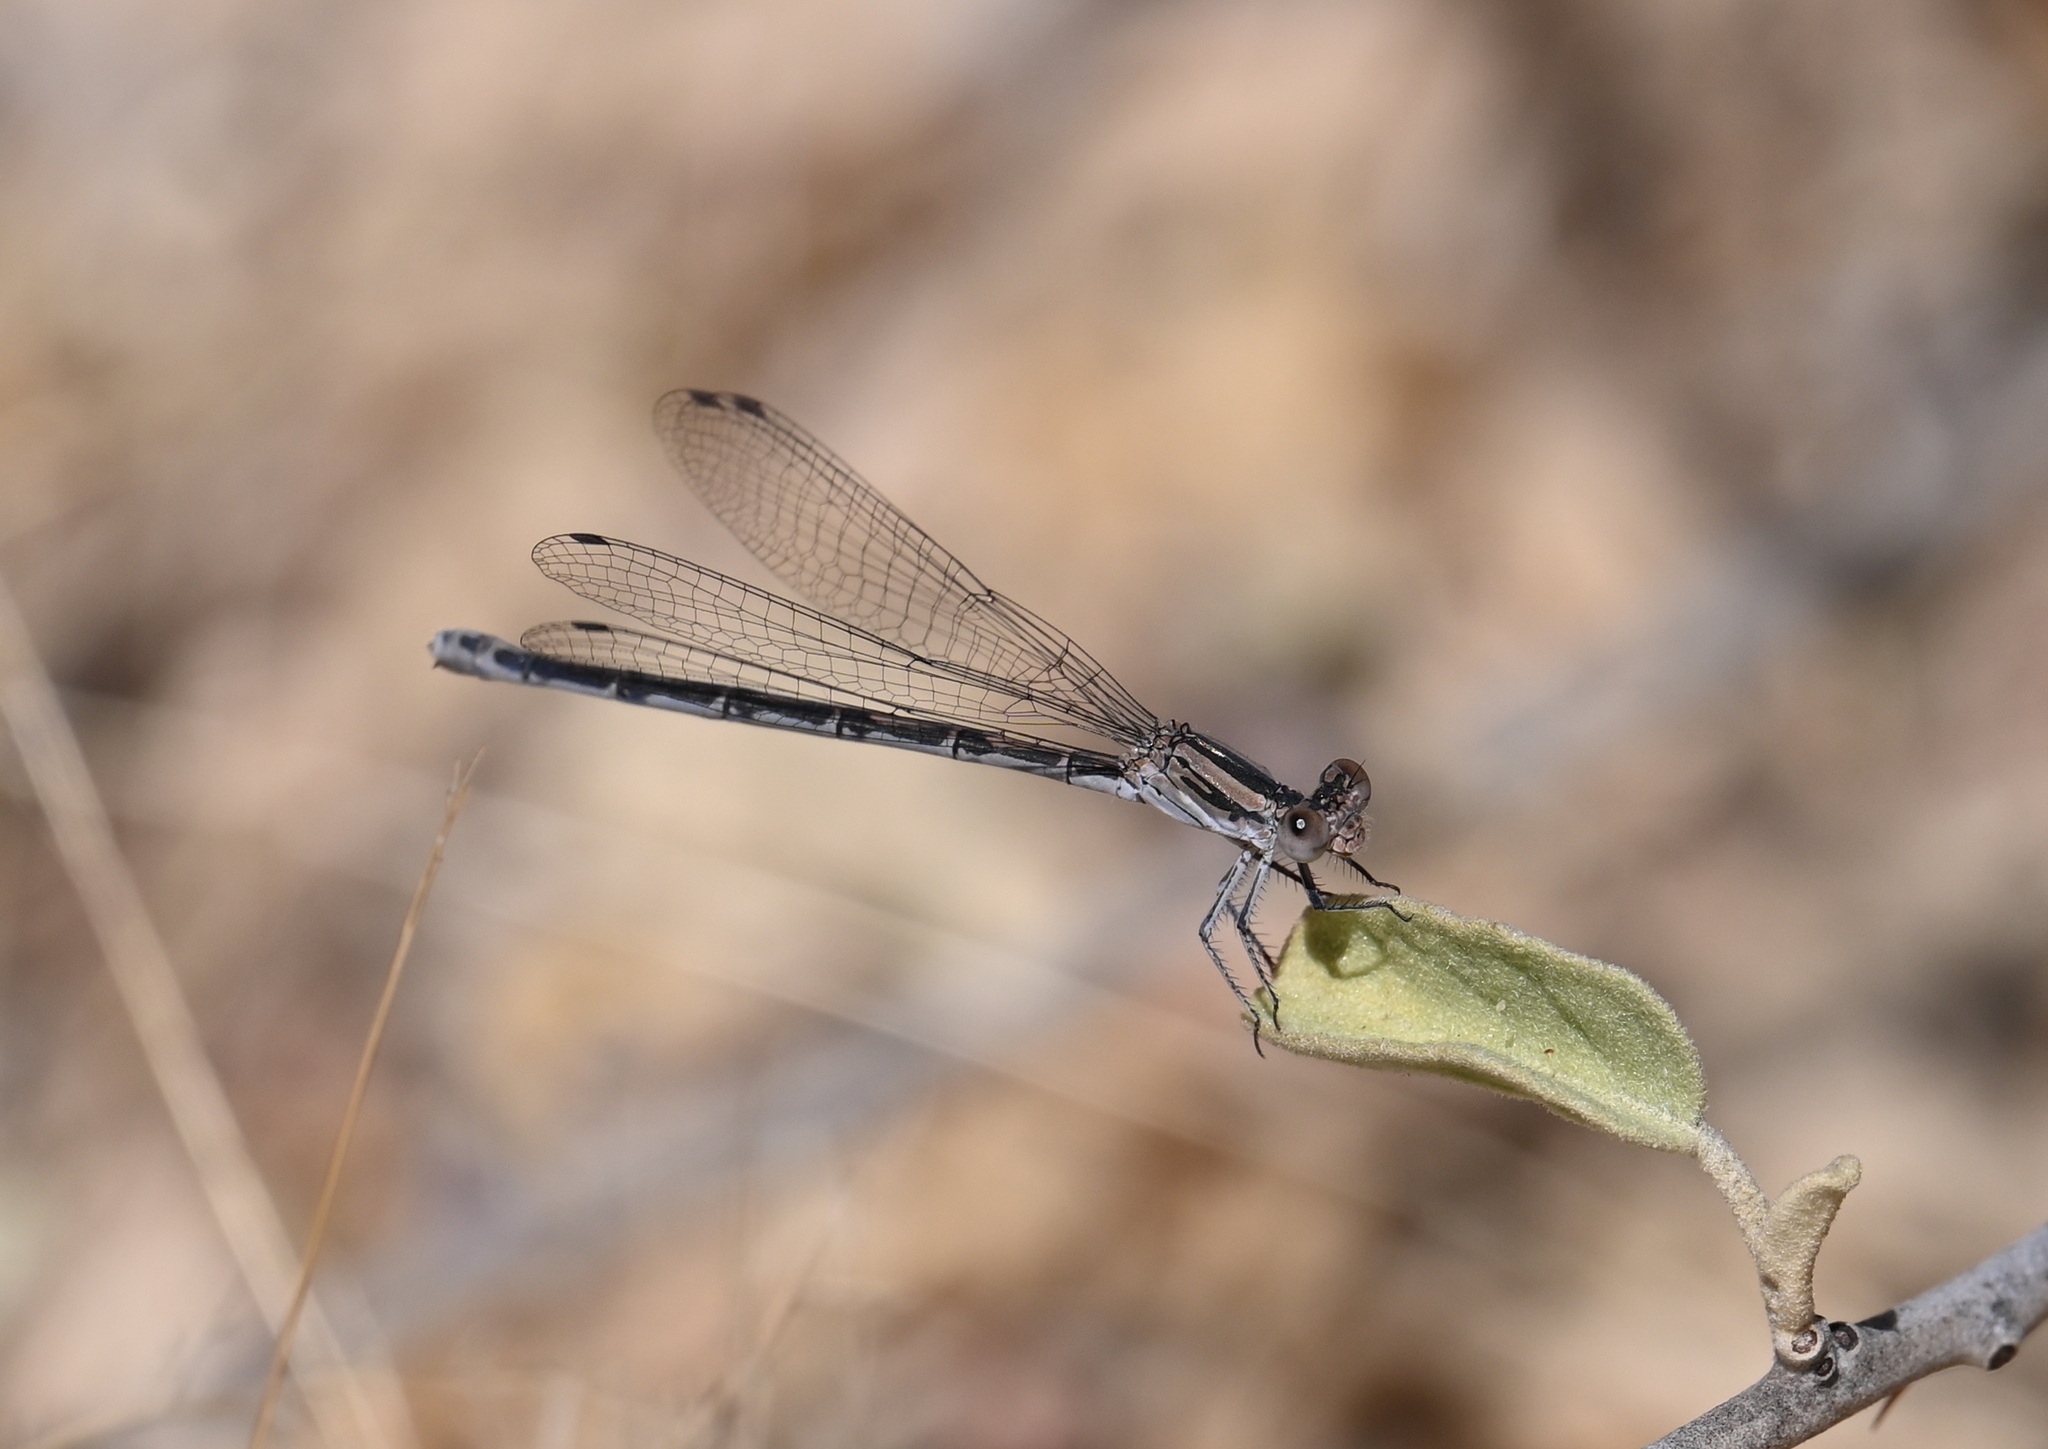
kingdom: Animalia
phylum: Arthropoda
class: Insecta
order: Odonata
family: Coenagrionidae
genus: Argia
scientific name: Argia agrioides
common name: California dancer
